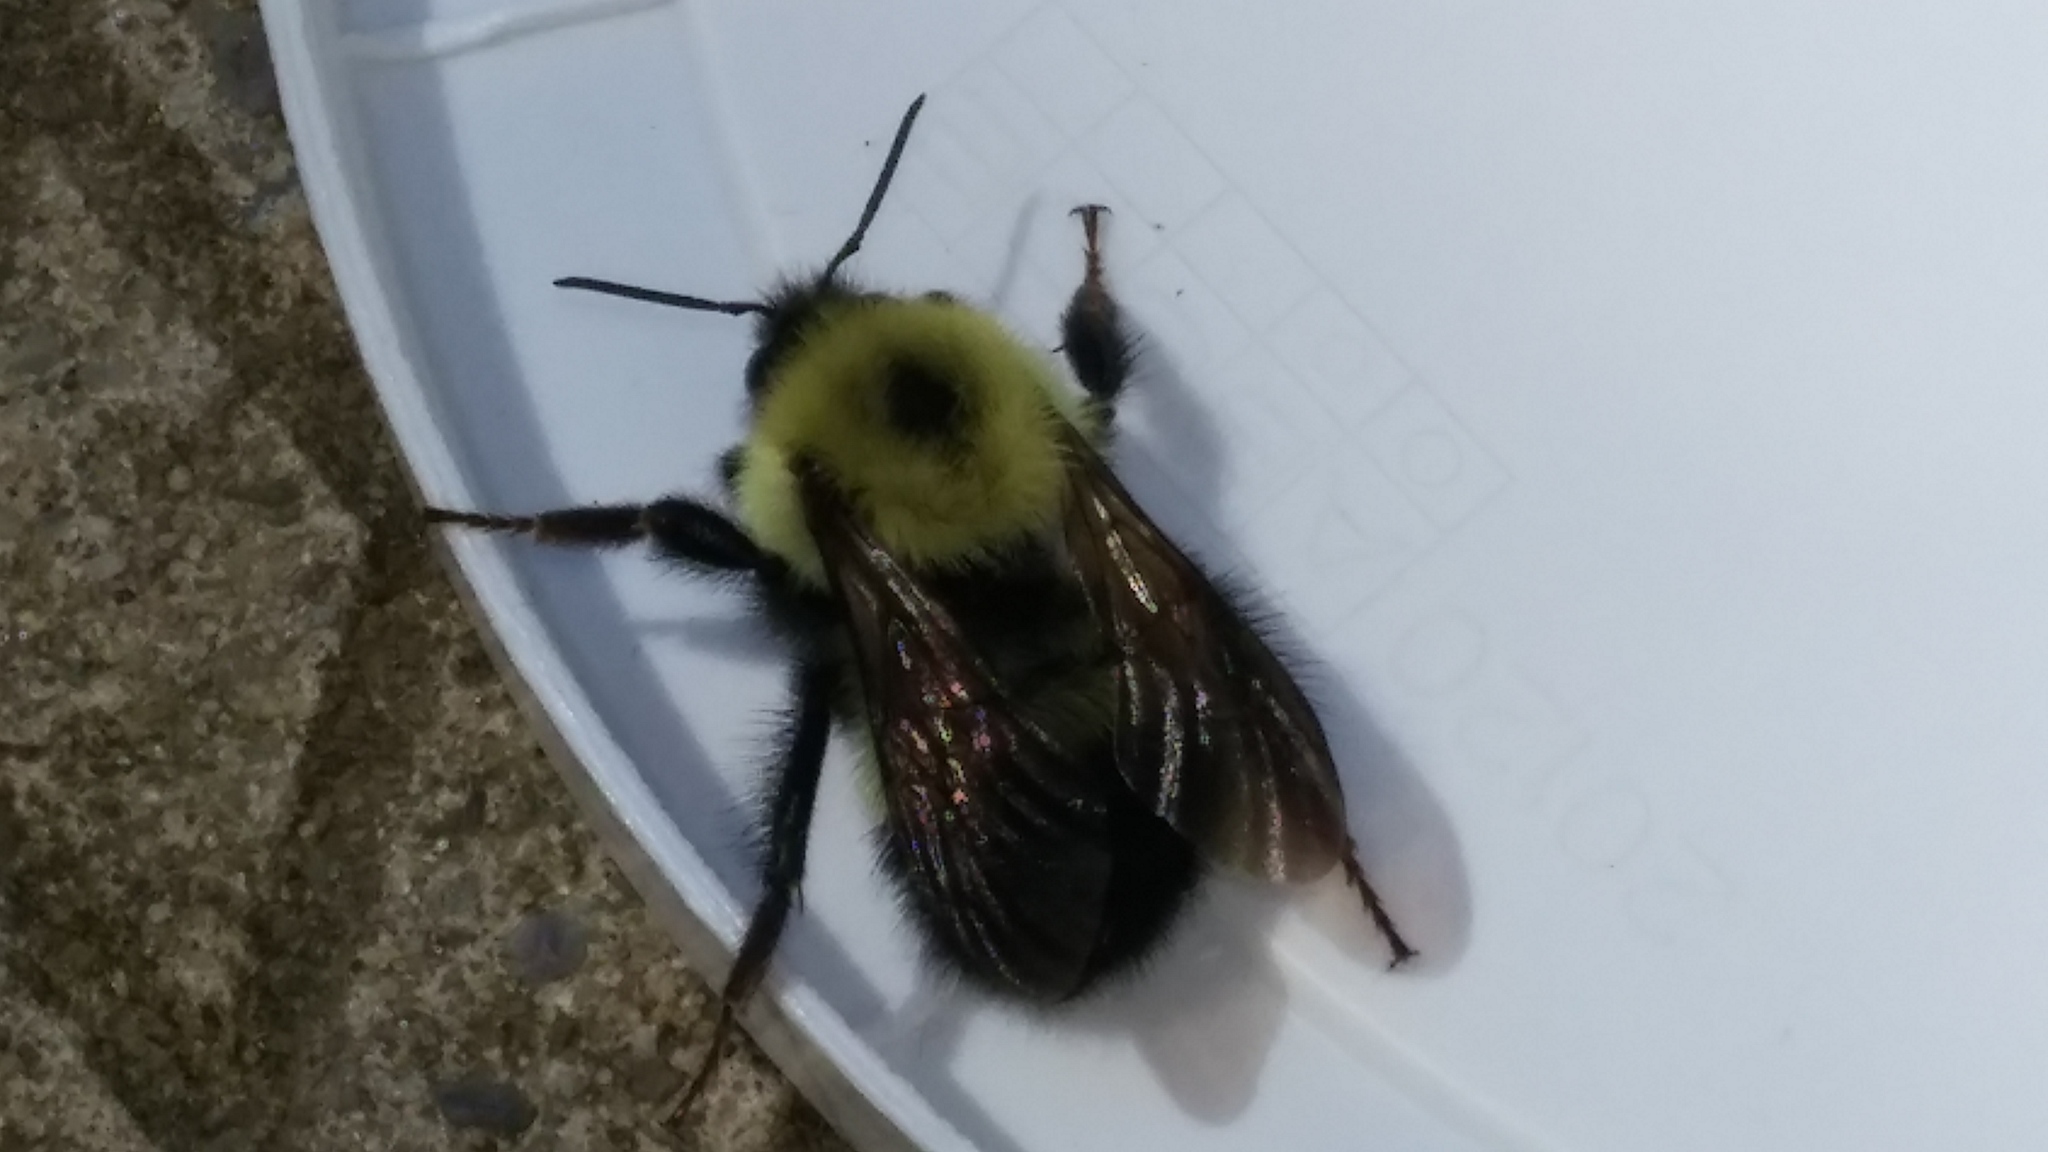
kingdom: Animalia
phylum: Arthropoda
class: Insecta
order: Hymenoptera
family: Apidae
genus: Bombus
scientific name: Bombus vagans
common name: Half-black bumble bee
